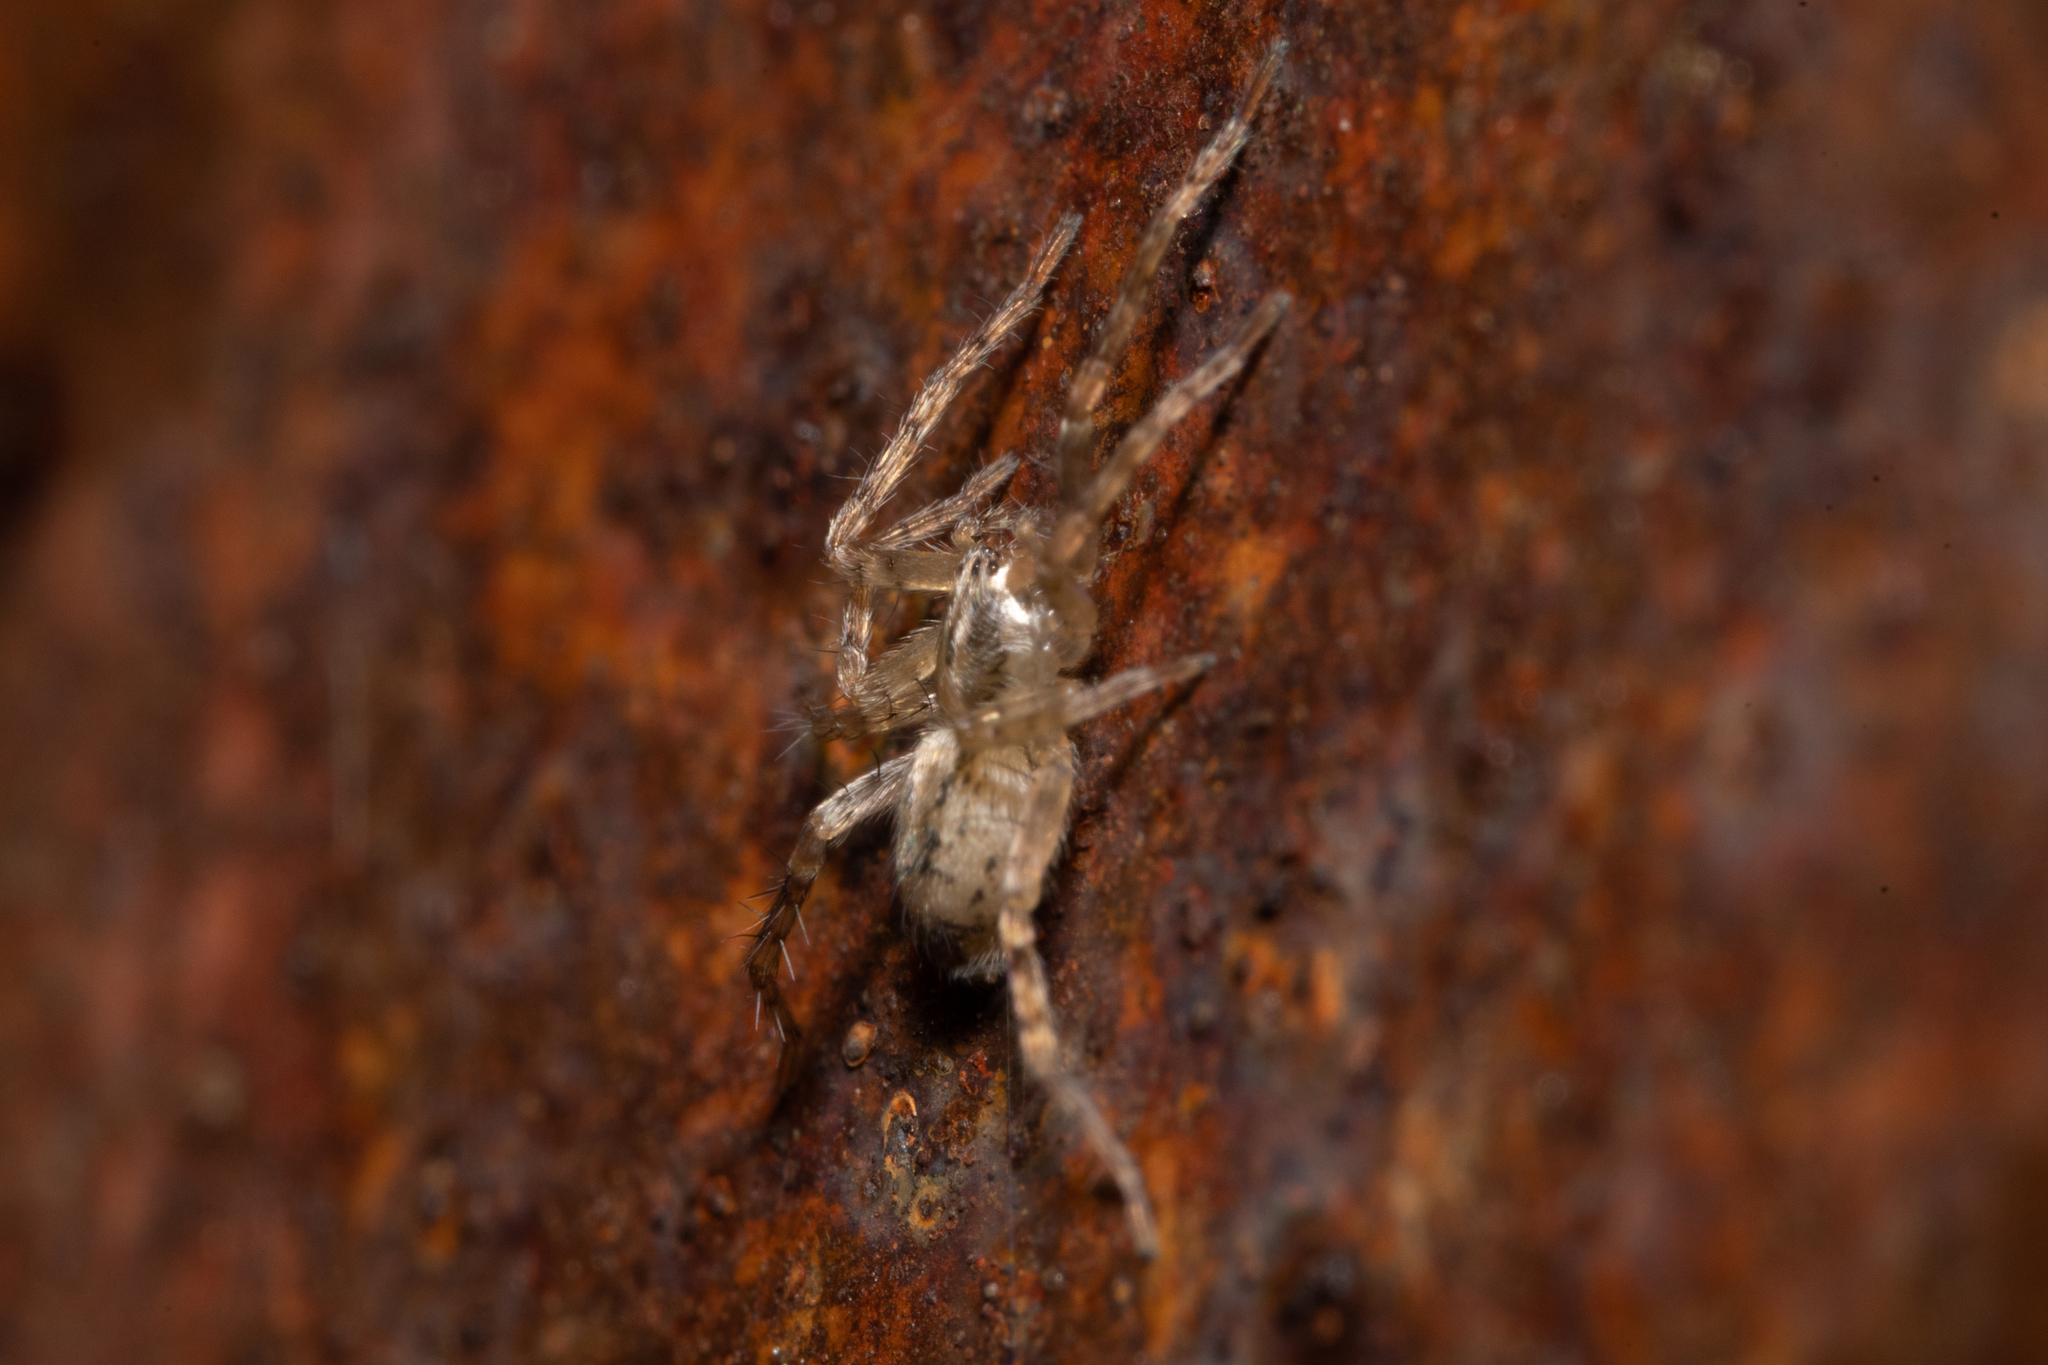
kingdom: Animalia
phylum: Arthropoda
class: Arachnida
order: Araneae
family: Anyphaenidae
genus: Anyphaena
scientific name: Anyphaena accentuata
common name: Buzzing spider
